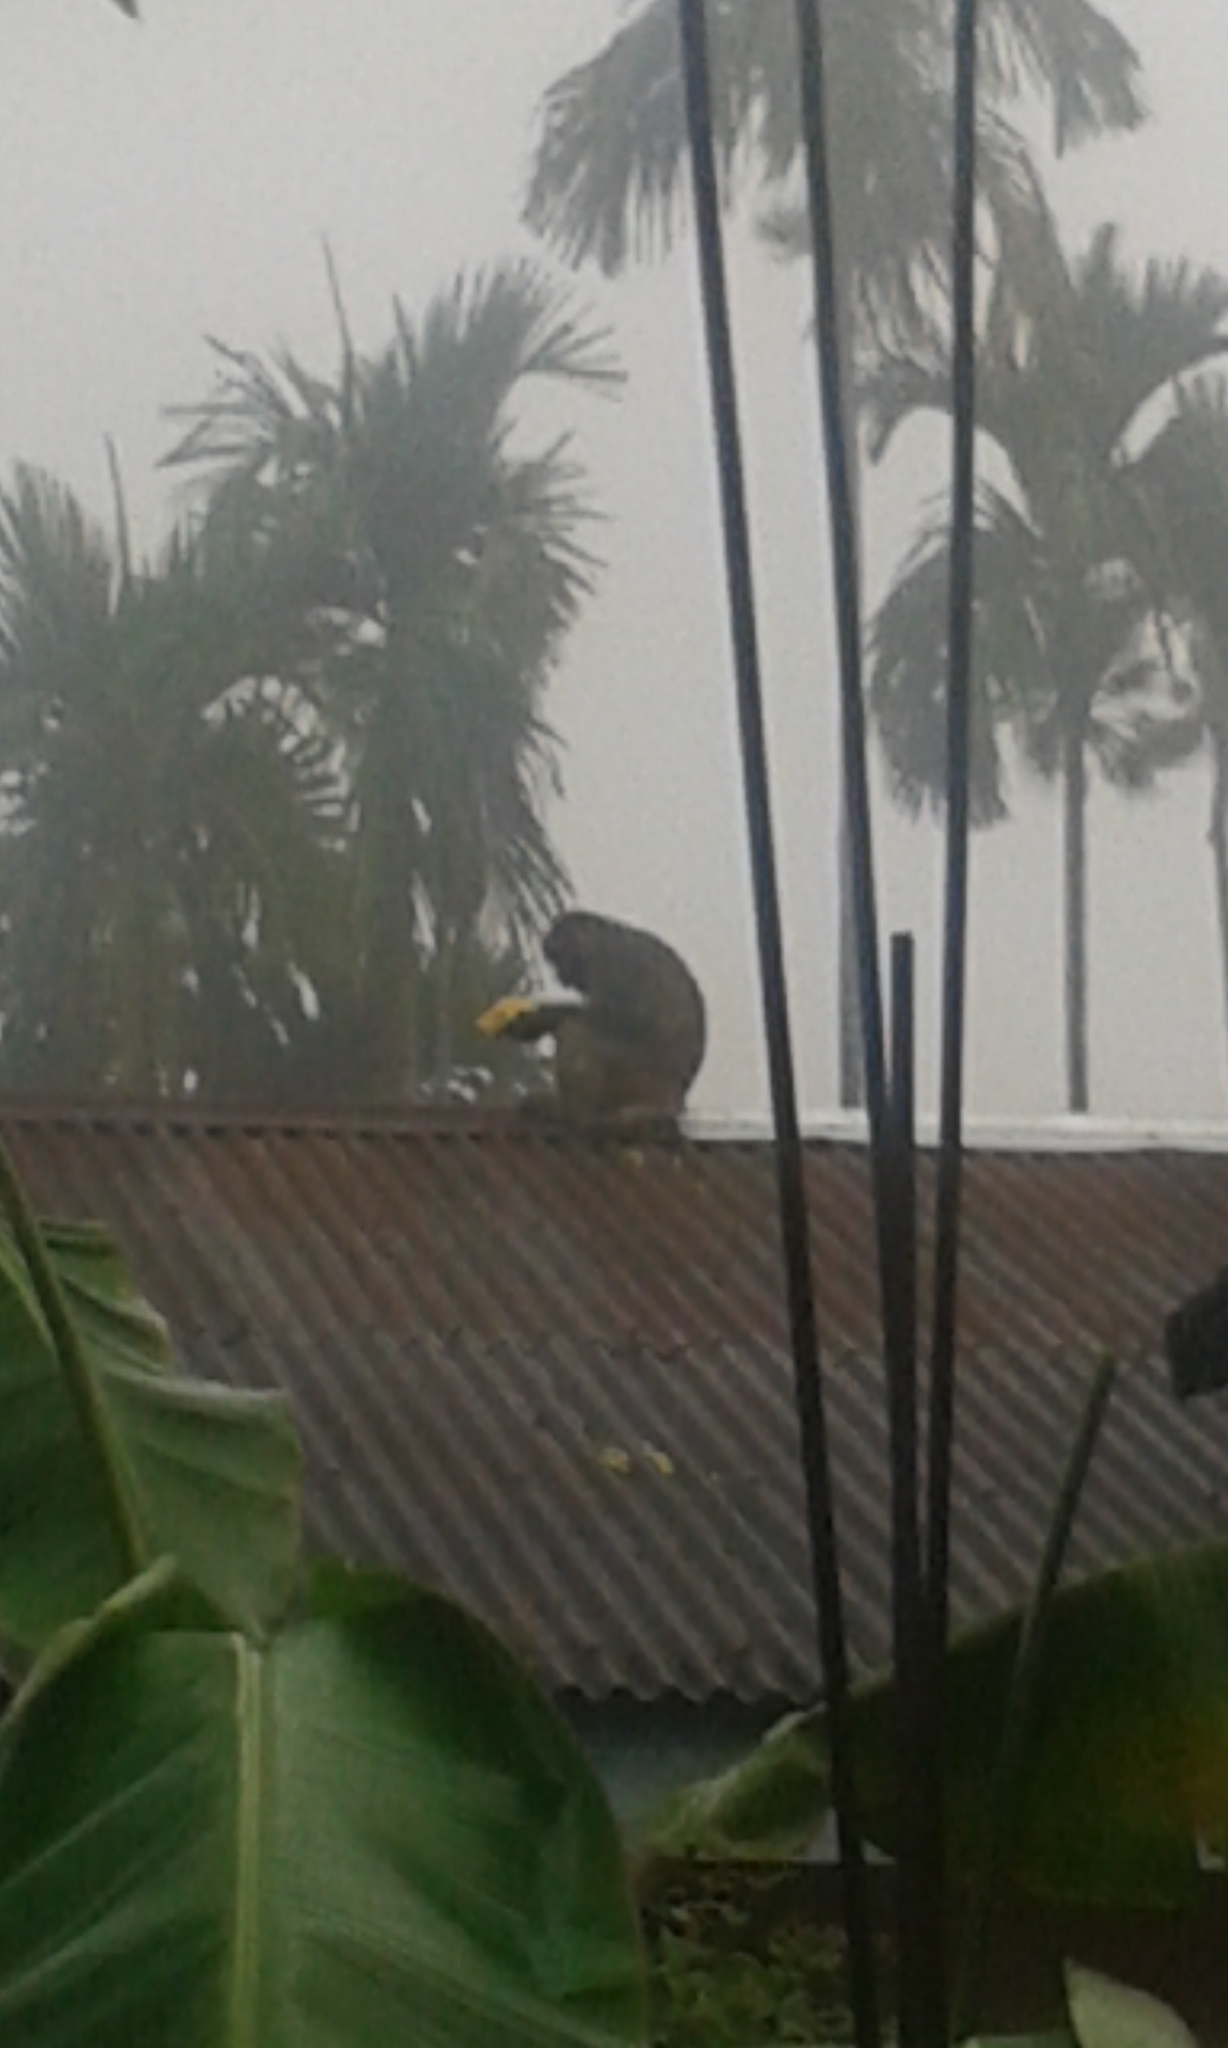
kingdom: Animalia
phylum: Chordata
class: Mammalia
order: Primates
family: Cercopithecidae
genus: Macaca
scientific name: Macaca mulatta
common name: Rhesus monkey
